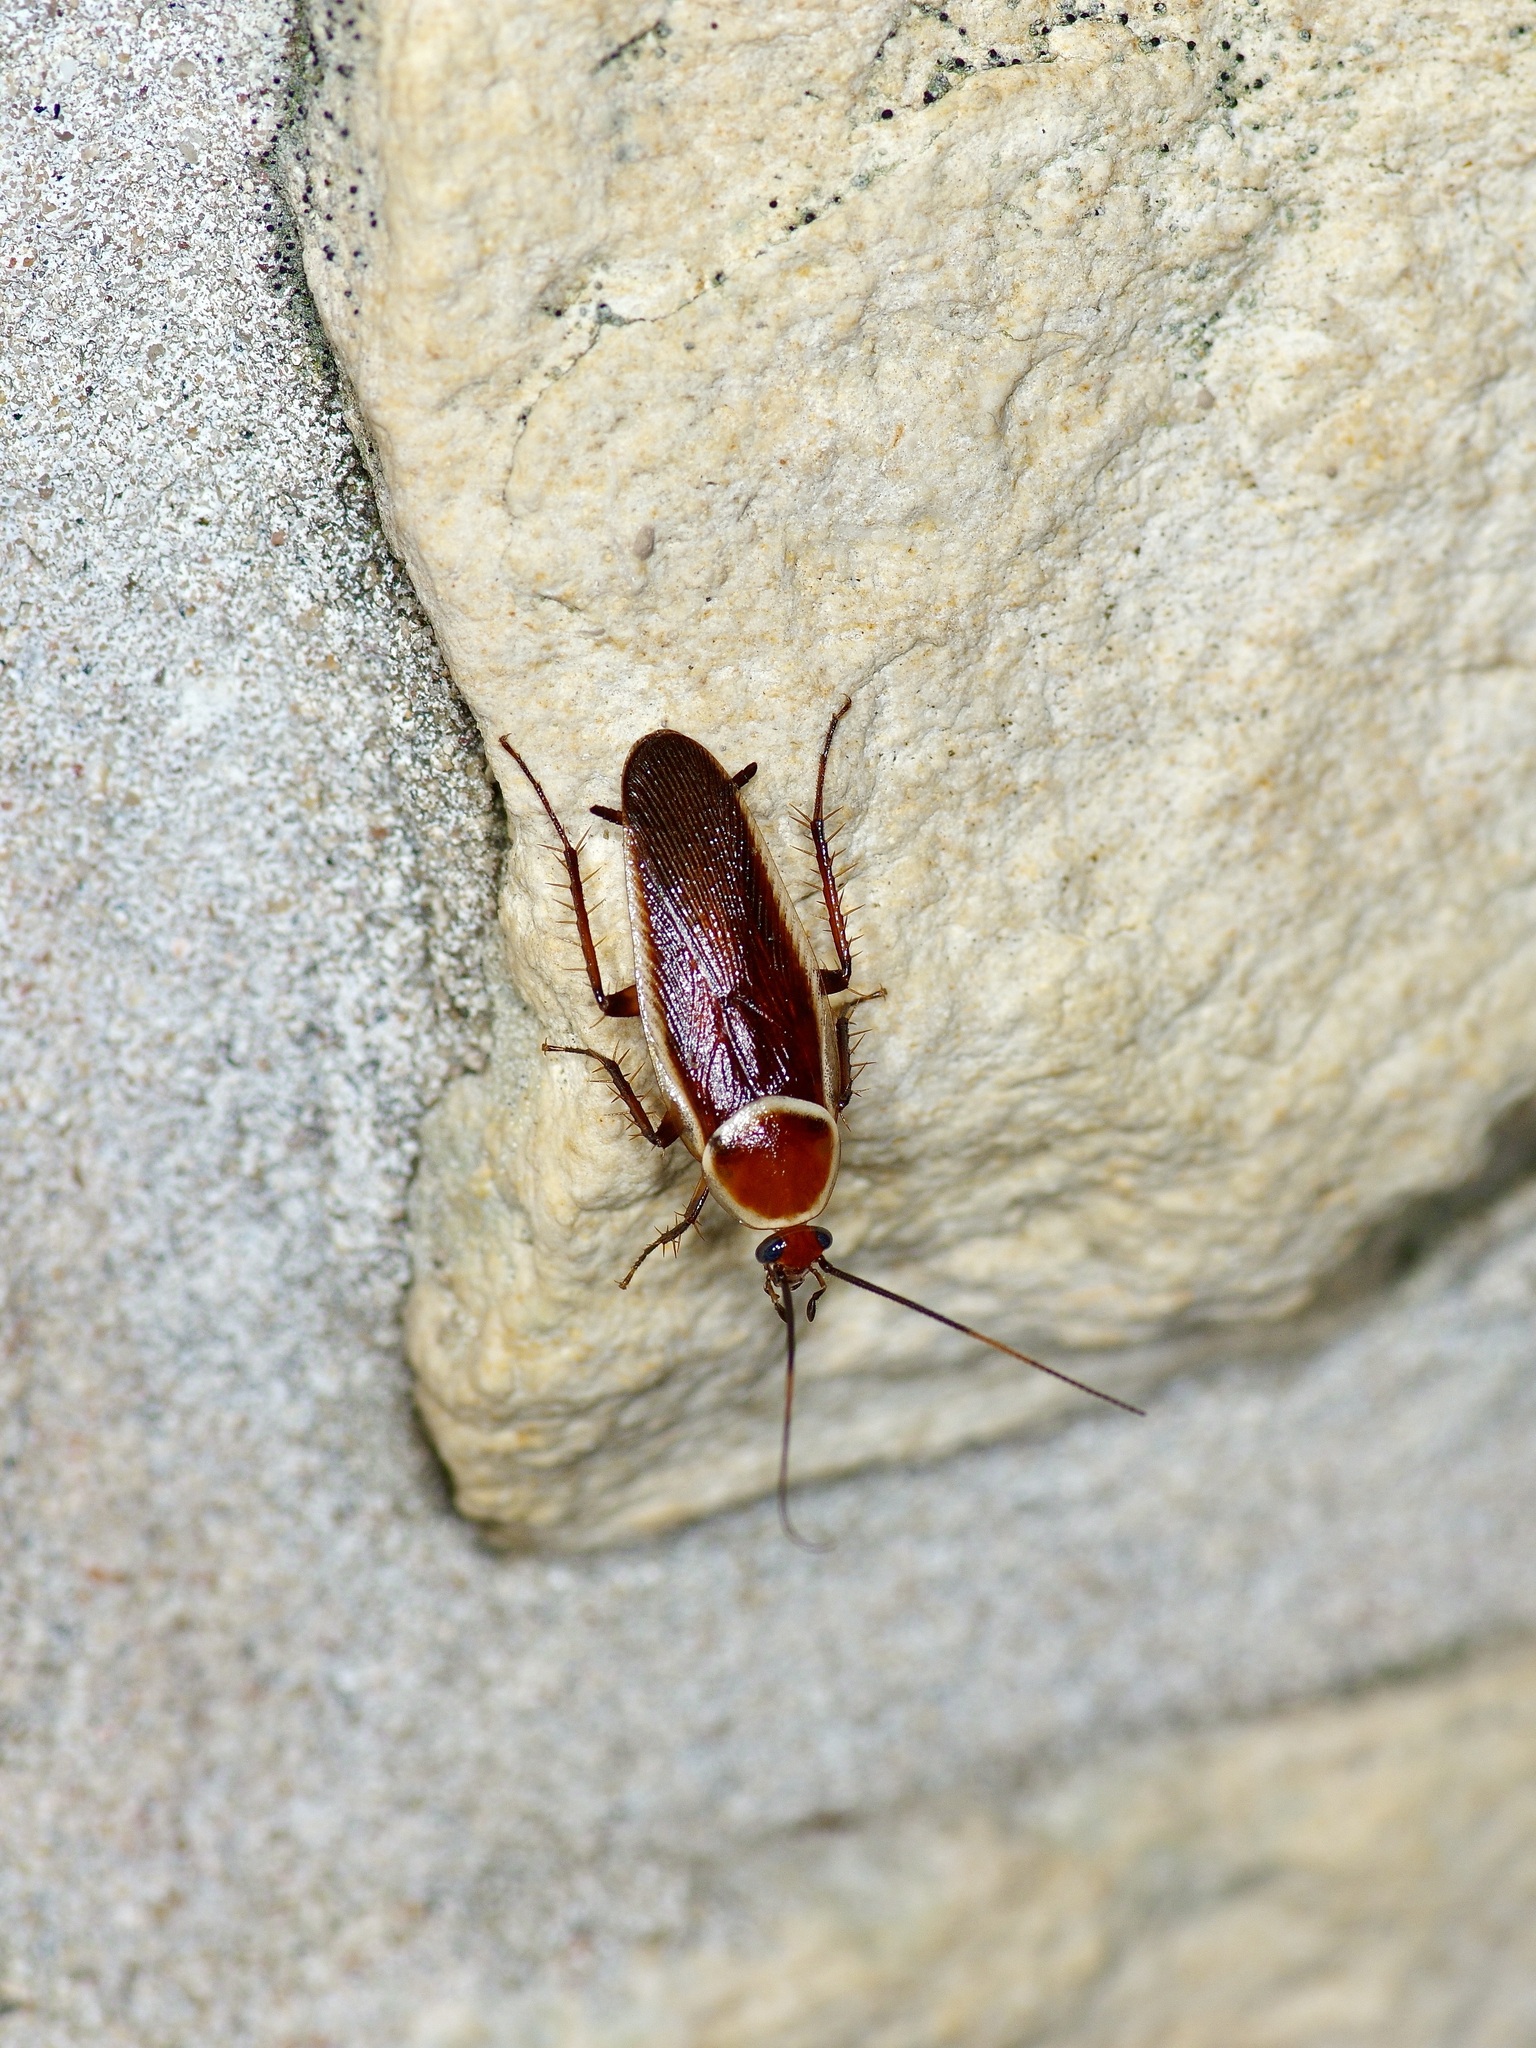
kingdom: Animalia
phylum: Arthropoda
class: Insecta
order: Blattodea
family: Ectobiidae
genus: Pseudomops
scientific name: Pseudomops septentrionalis
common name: Pale-bordered field cockroach
